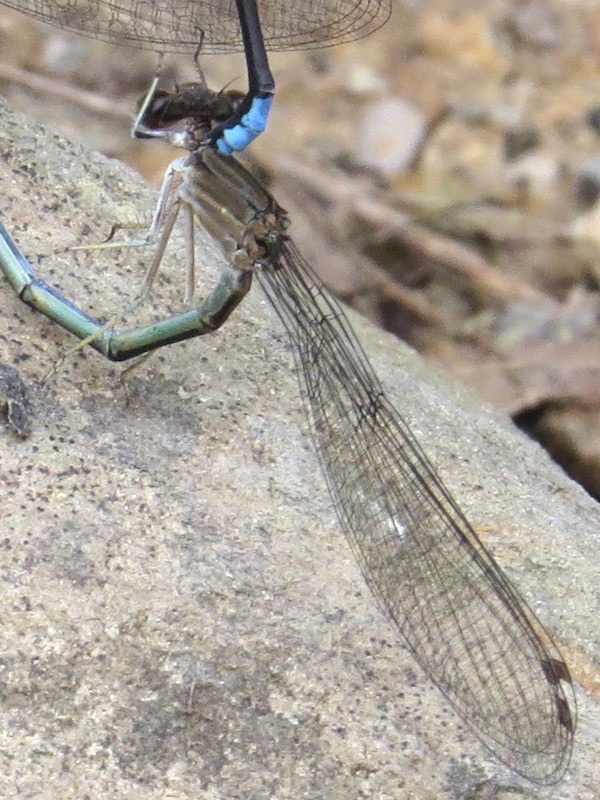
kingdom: Animalia
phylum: Arthropoda
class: Insecta
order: Odonata
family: Coenagrionidae
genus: Argia
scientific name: Argia apicalis
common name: Blue-fronted dancer
